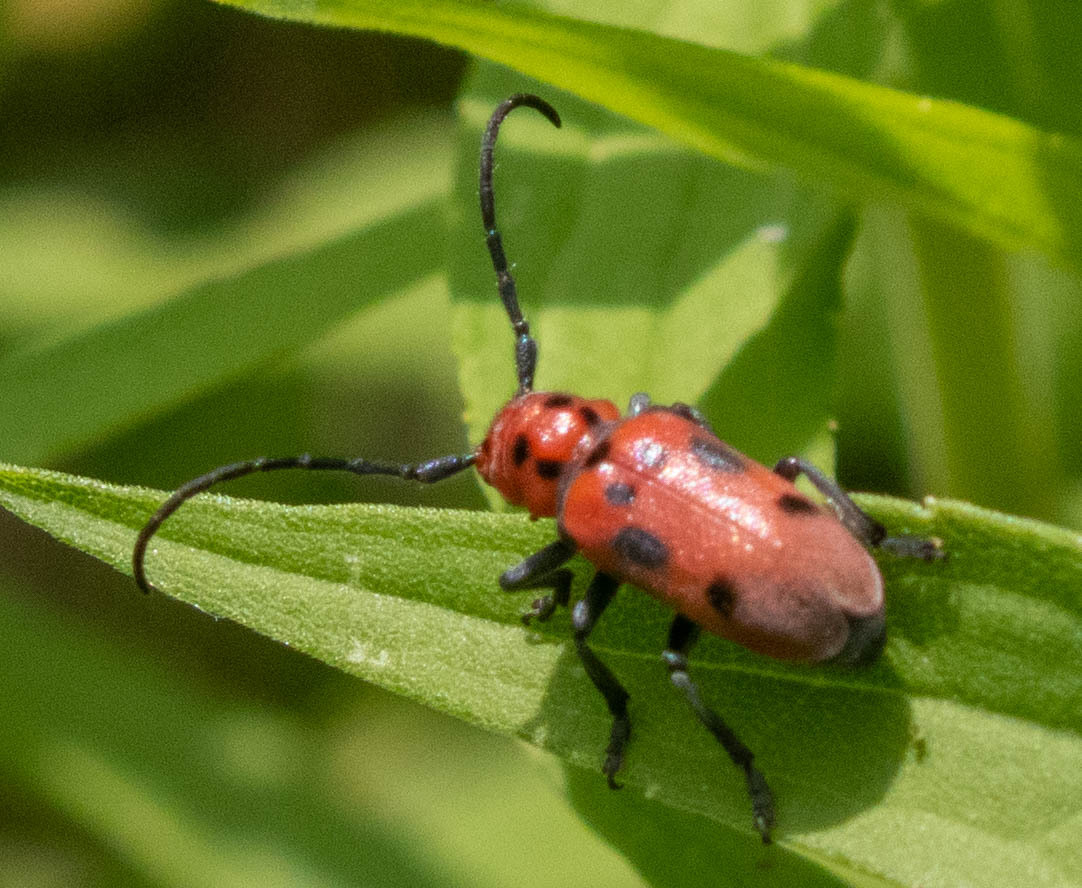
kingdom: Animalia
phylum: Arthropoda
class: Insecta
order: Coleoptera
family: Cerambycidae
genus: Tetraopes
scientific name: Tetraopes tetrophthalmus
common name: Red milkweed beetle
